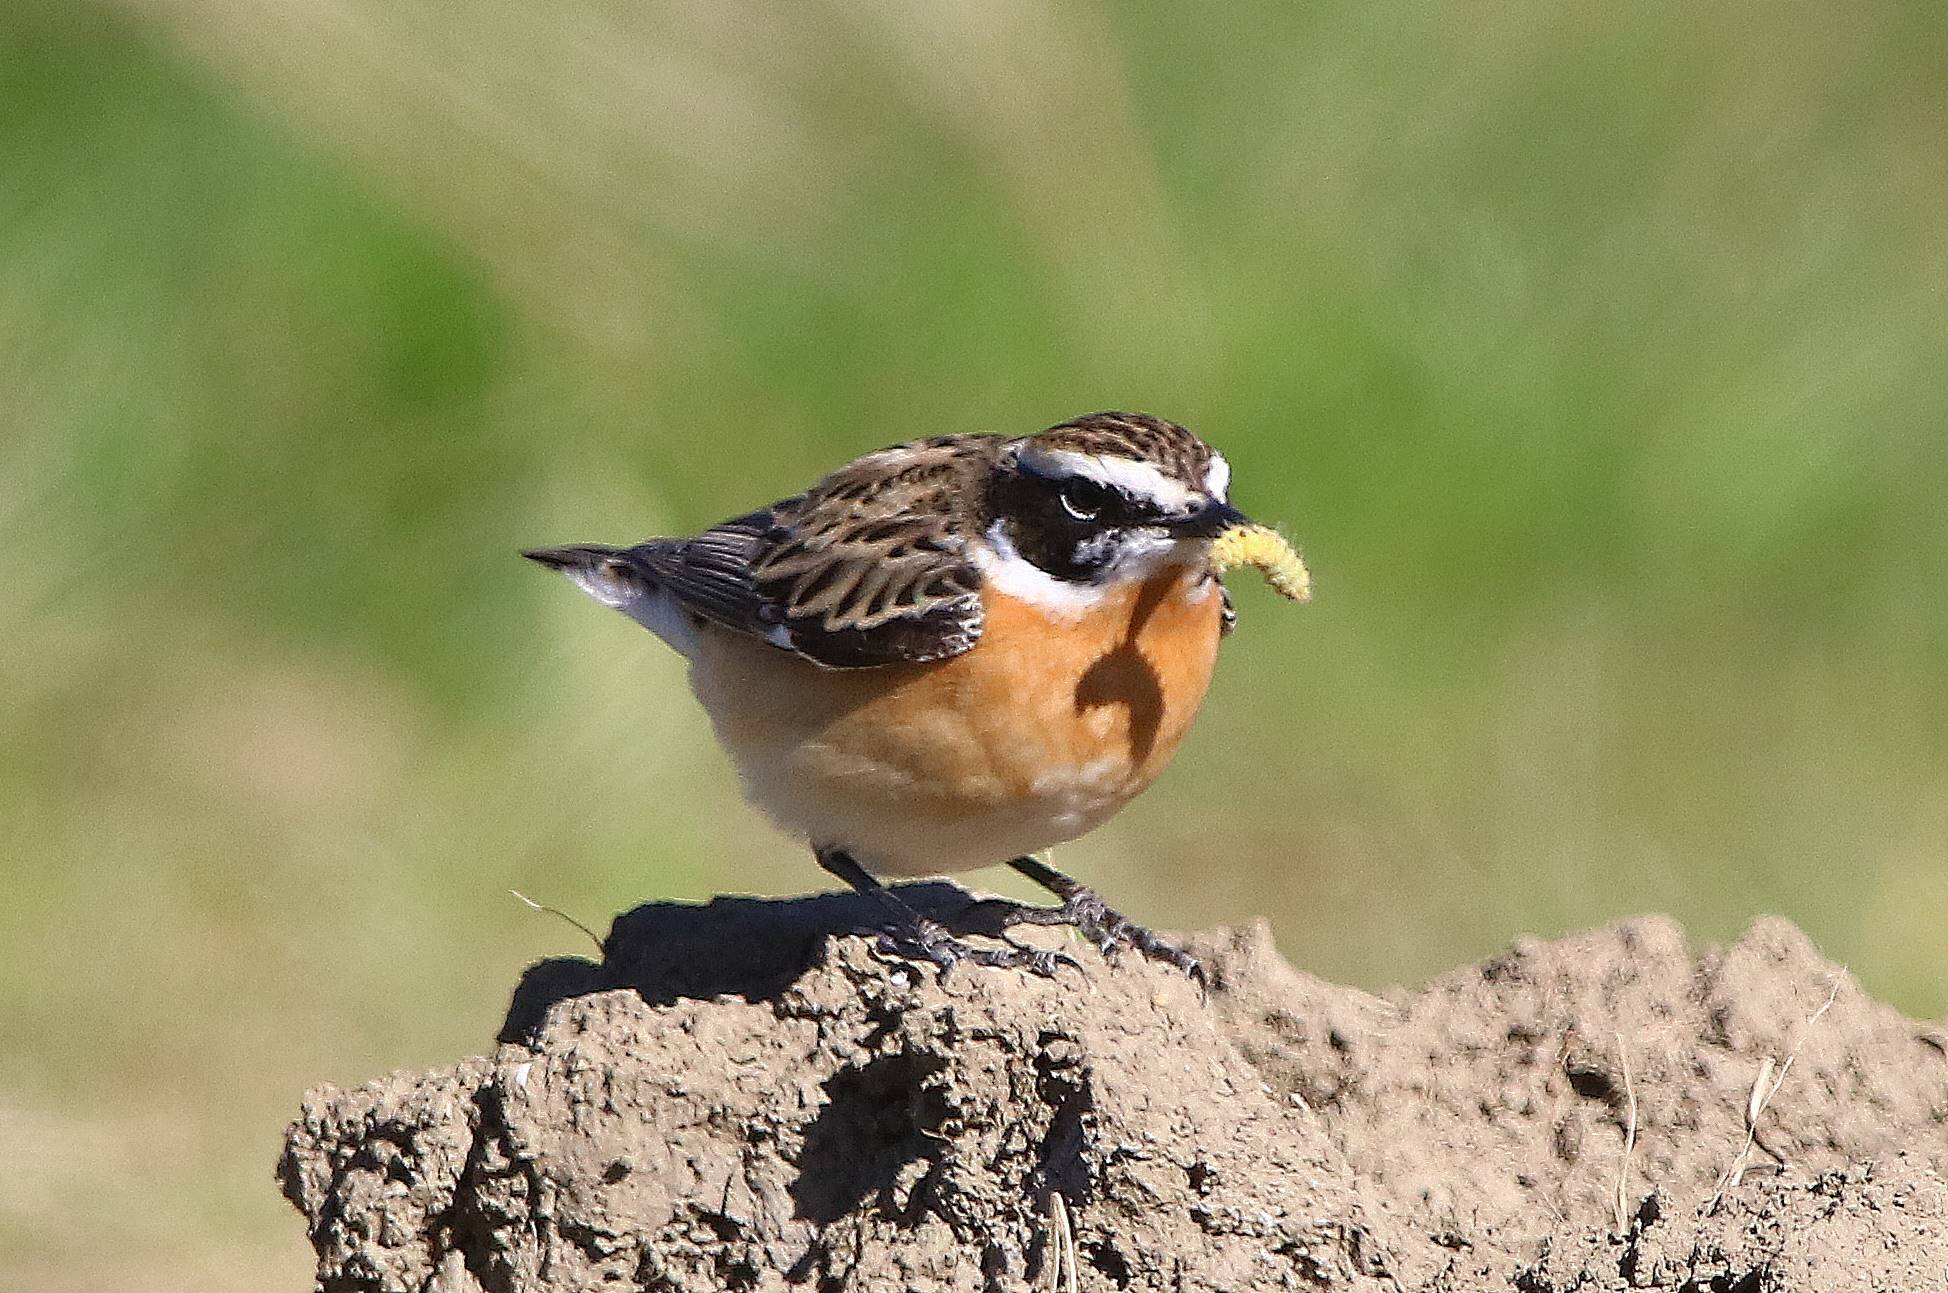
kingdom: Animalia
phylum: Chordata
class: Aves
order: Passeriformes
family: Muscicapidae
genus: Saxicola
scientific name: Saxicola rubetra
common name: Whinchat
